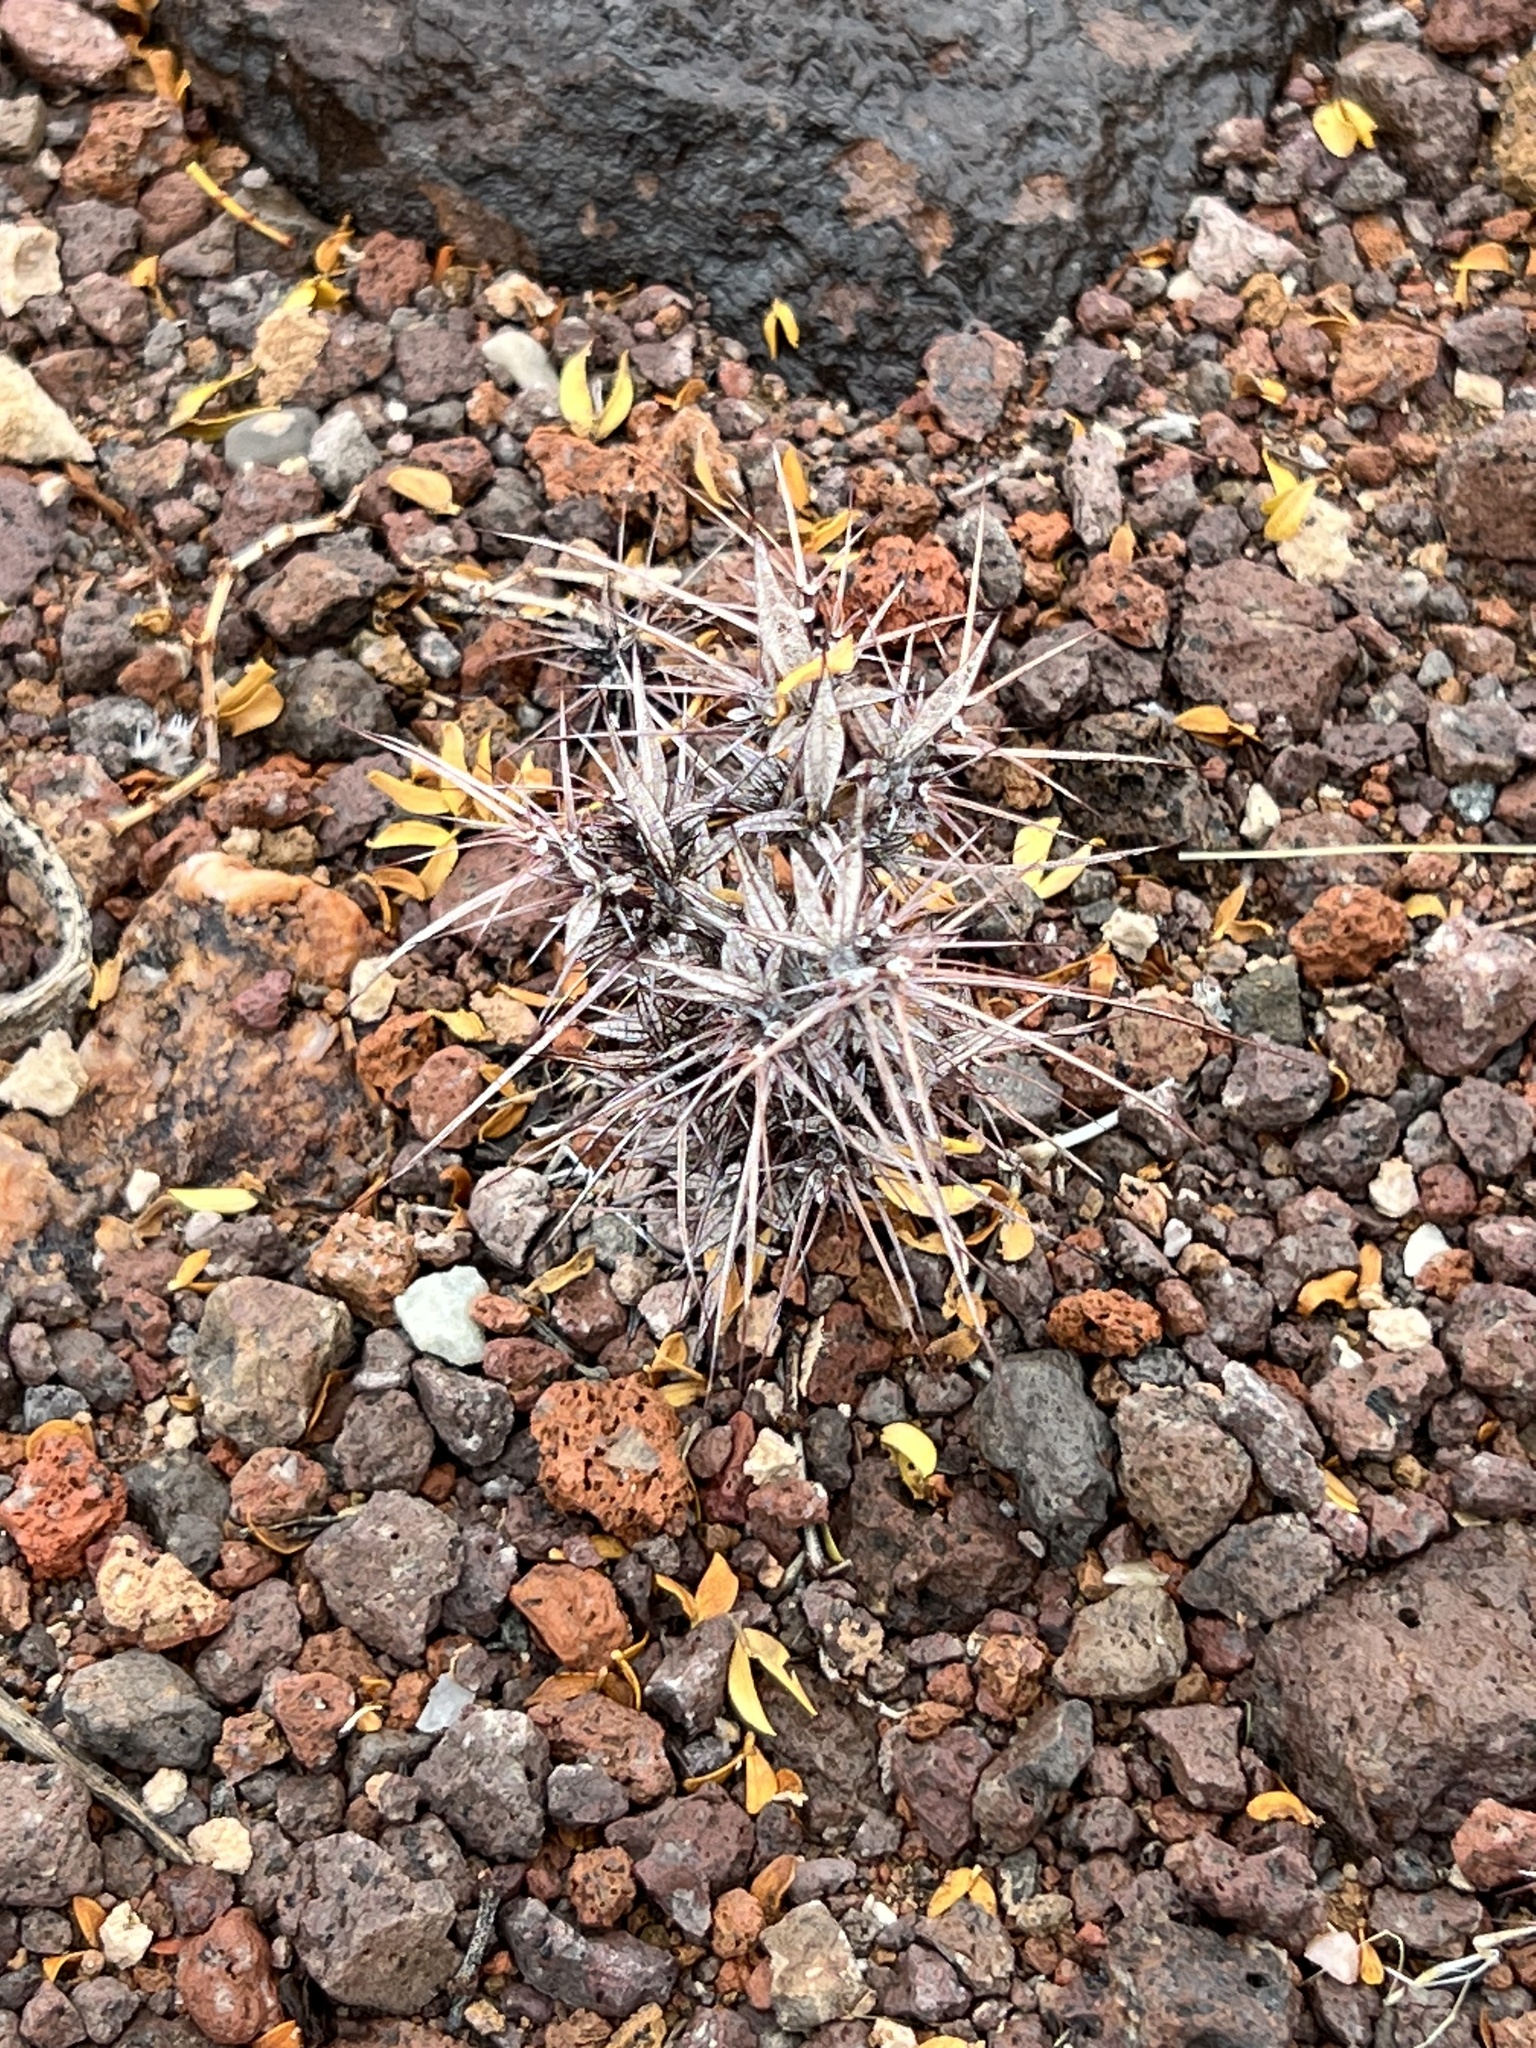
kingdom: Plantae
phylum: Tracheophyta
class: Magnoliopsida
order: Caryophyllales
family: Polygonaceae
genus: Chorizanthe
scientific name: Chorizanthe rigida
